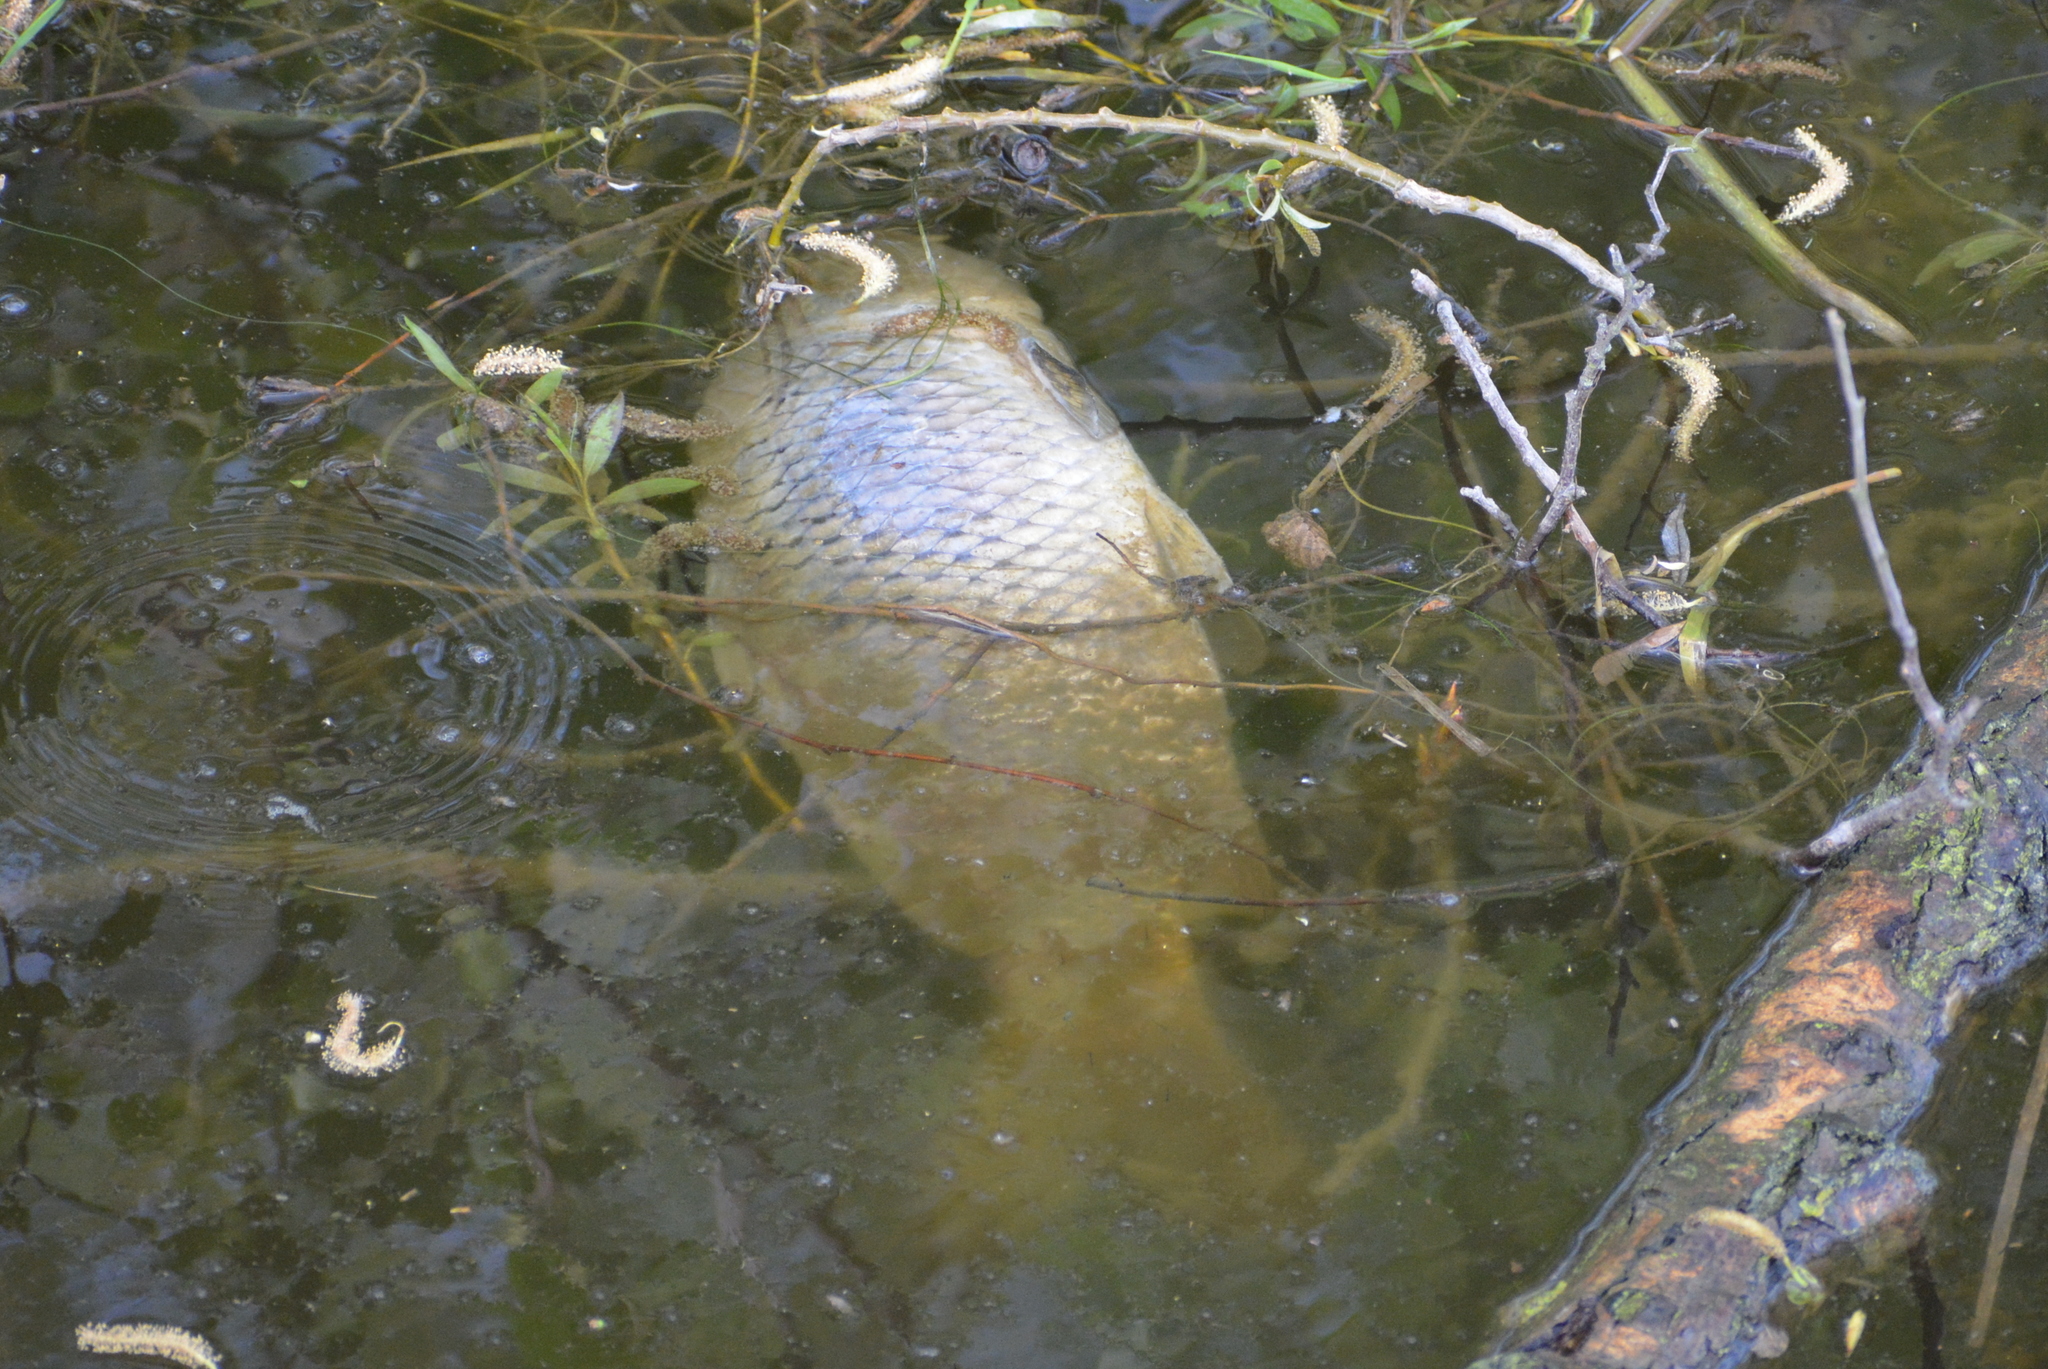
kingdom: Animalia
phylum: Chordata
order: Cypriniformes
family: Cyprinidae
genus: Cyprinus
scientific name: Cyprinus carpio
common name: Common carp
